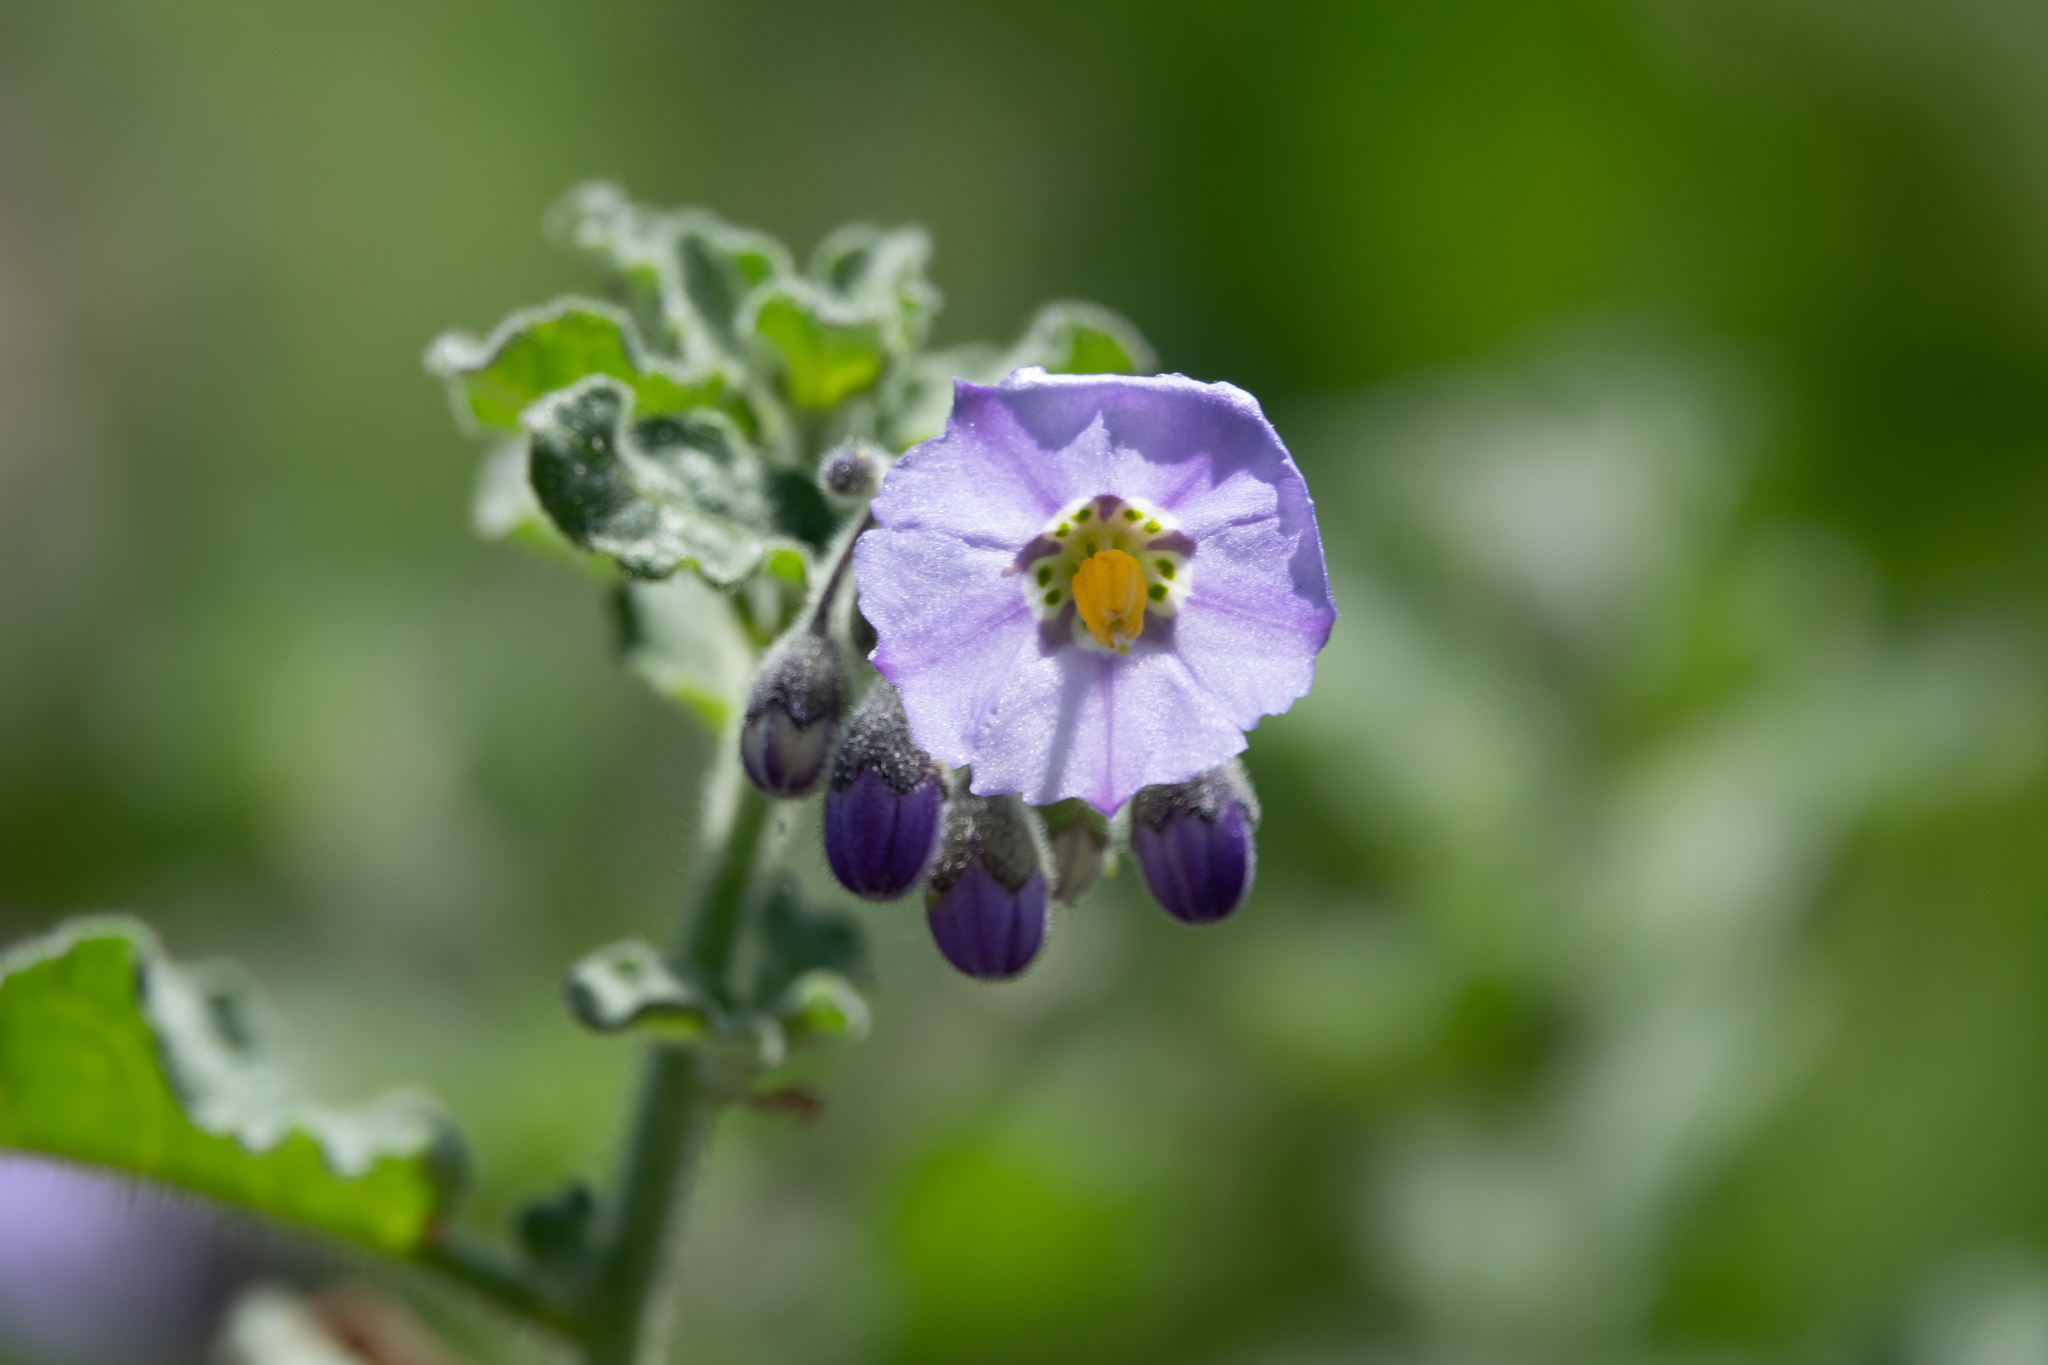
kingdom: Plantae
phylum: Tracheophyta
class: Magnoliopsida
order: Solanales
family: Solanaceae
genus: Solanum
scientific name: Solanum umbelliferum
